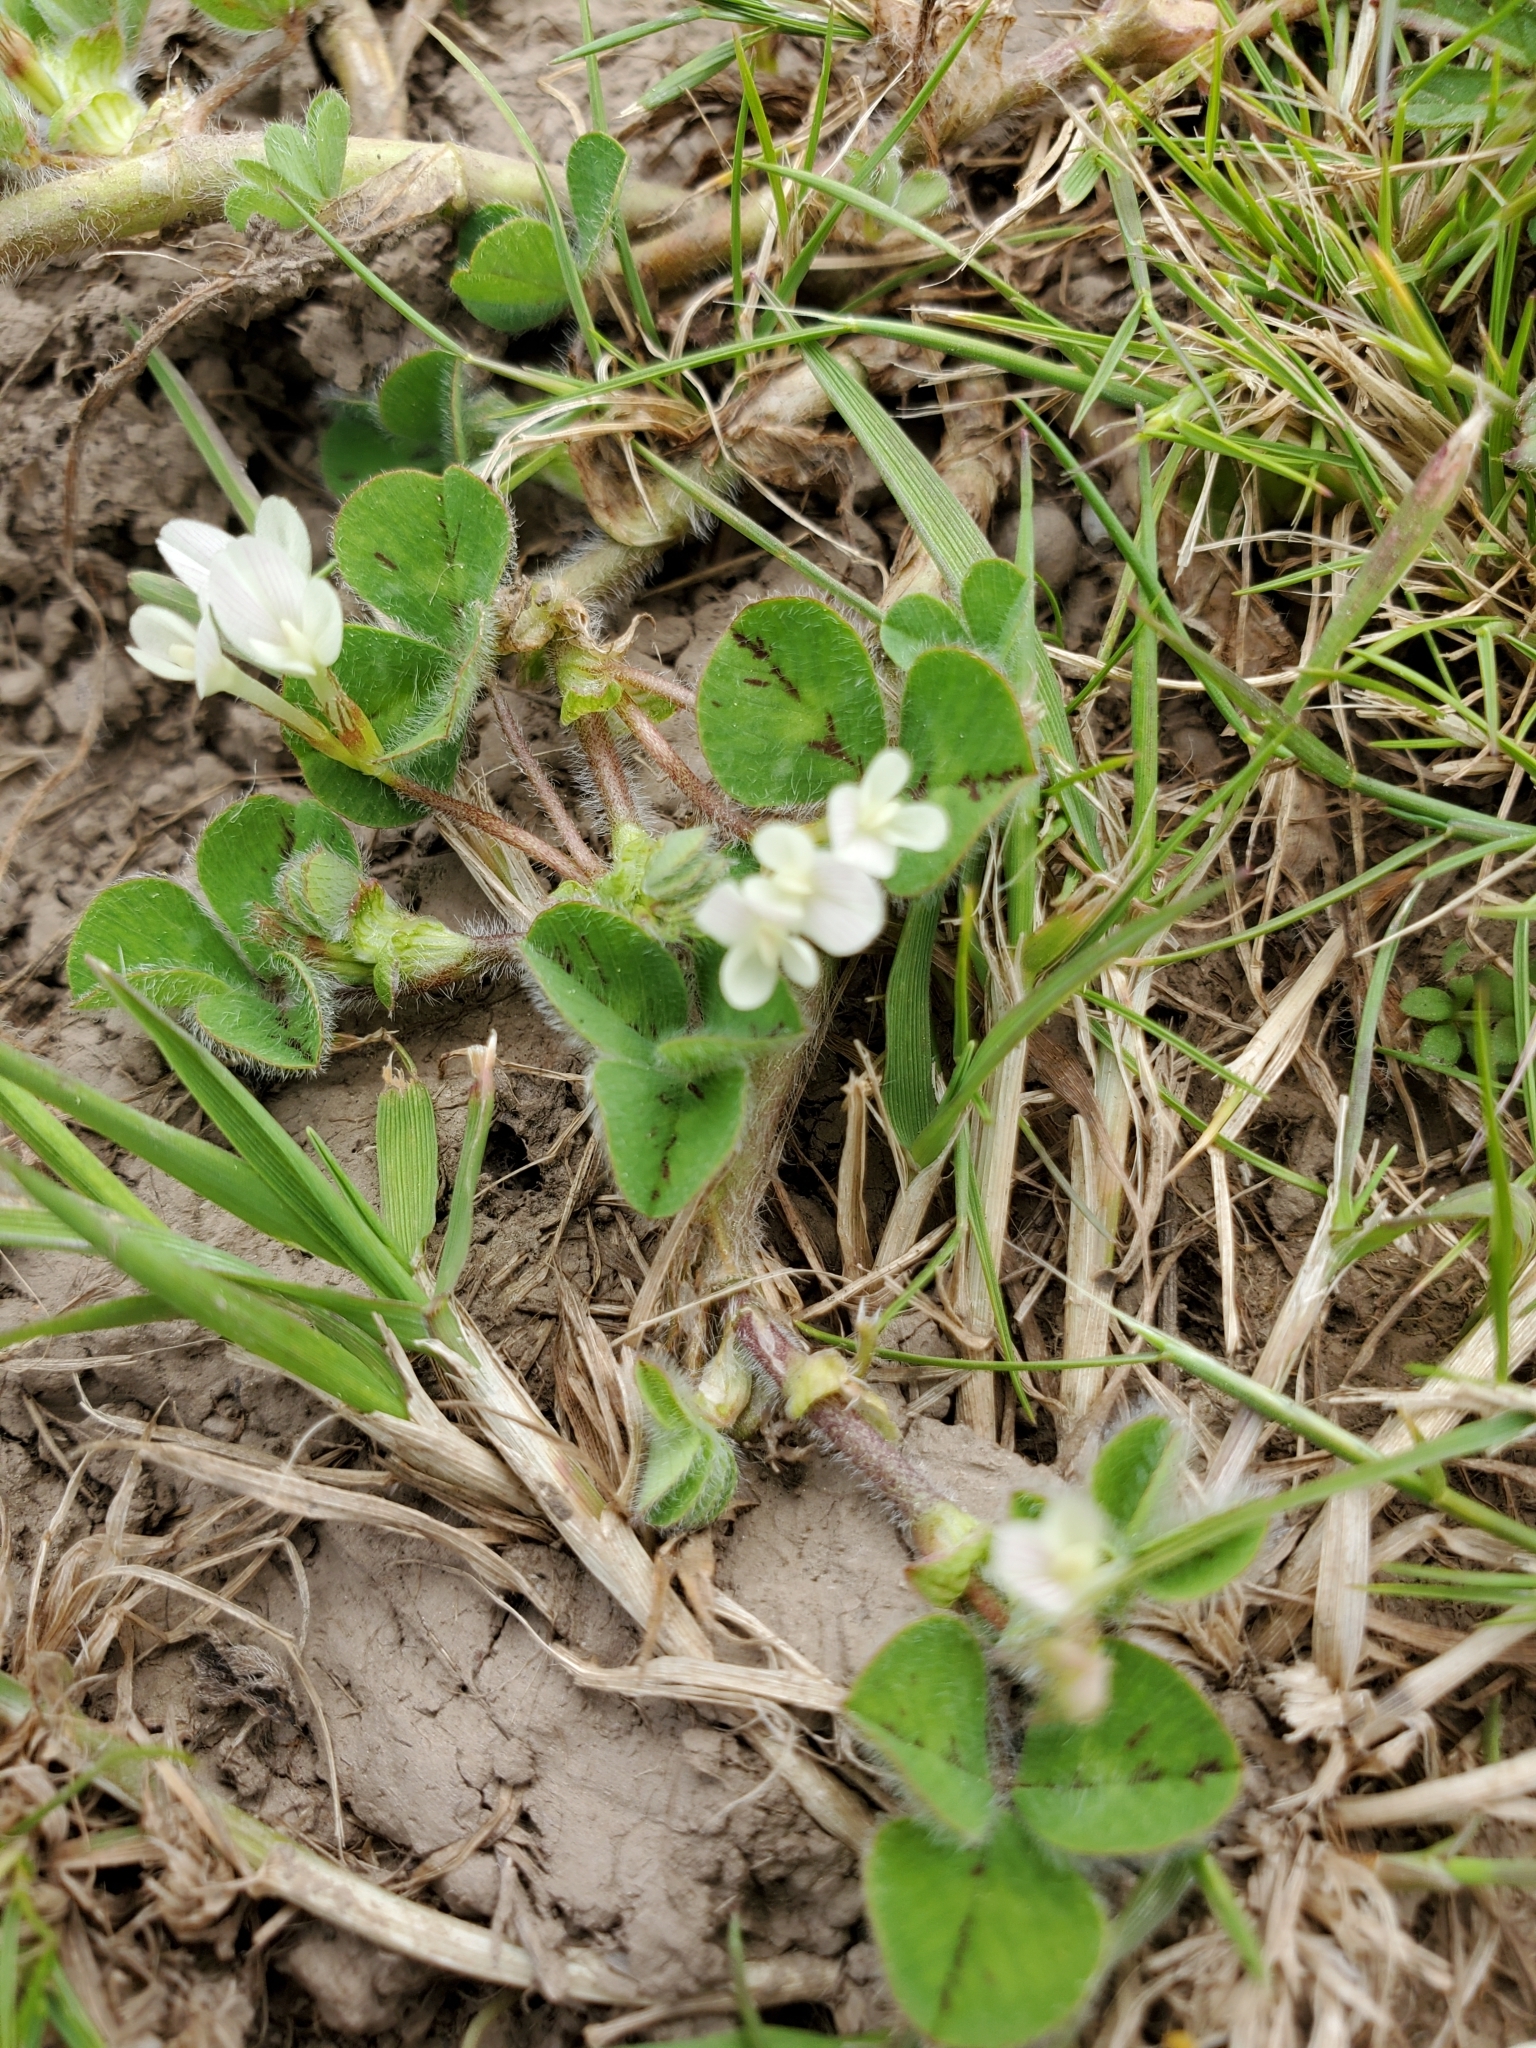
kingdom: Plantae
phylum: Tracheophyta
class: Magnoliopsida
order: Fabales
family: Fabaceae
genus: Trifolium
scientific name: Trifolium subterraneum
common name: Subterranean clover
